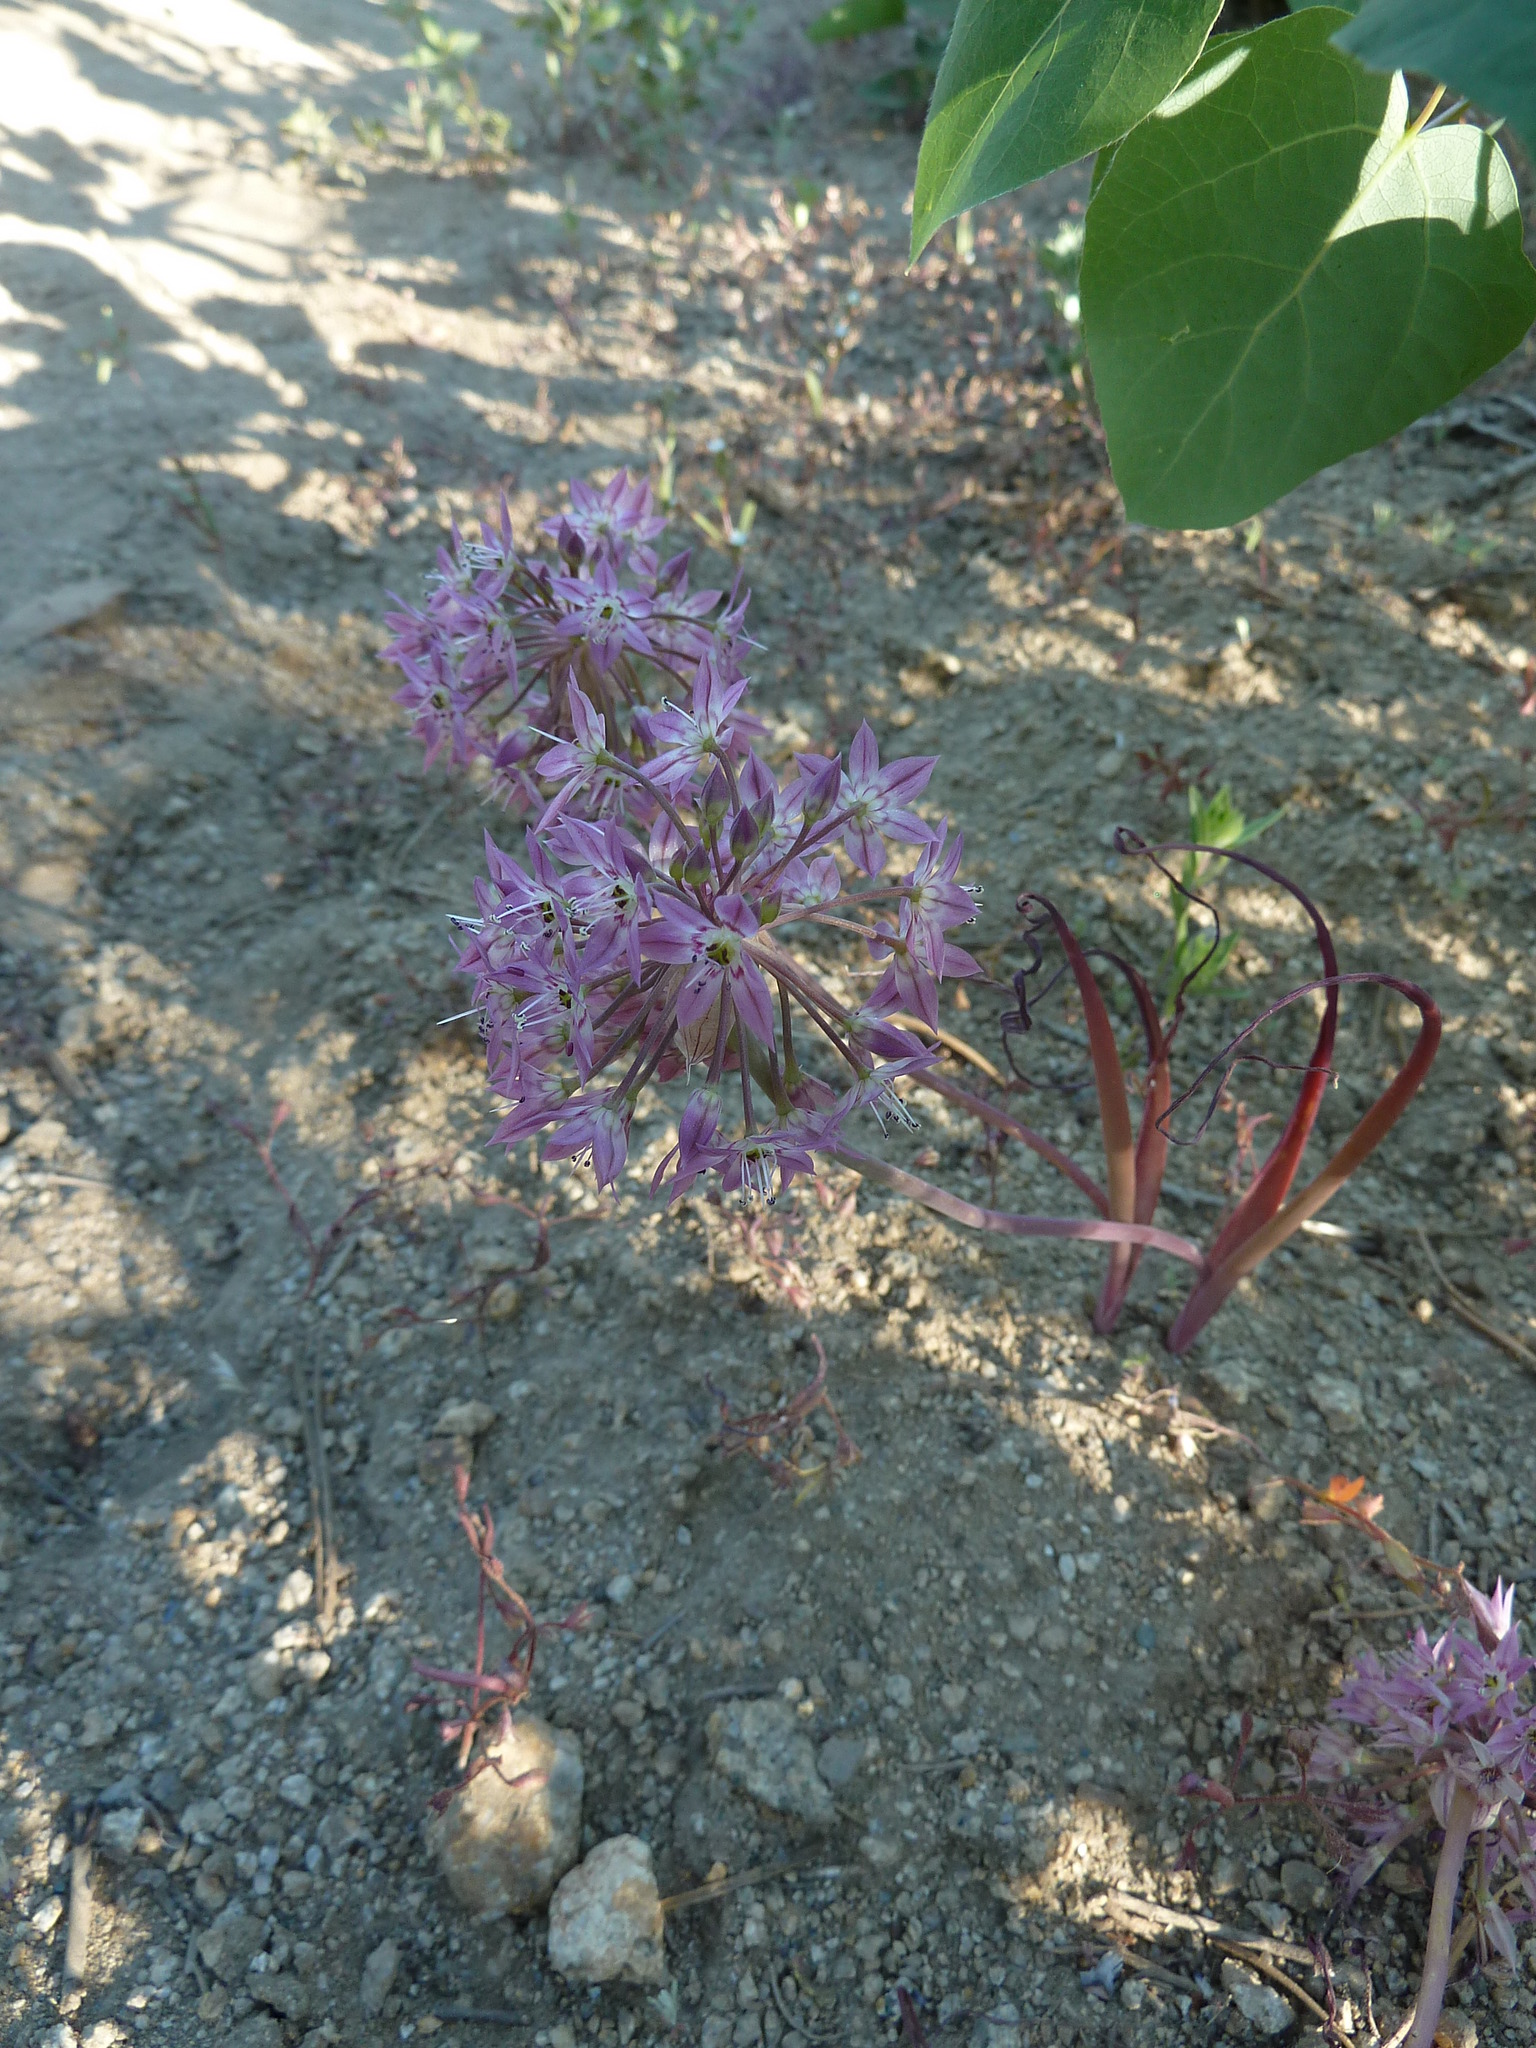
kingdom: Plantae
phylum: Tracheophyta
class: Liliopsida
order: Asparagales
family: Amaryllidaceae
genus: Allium
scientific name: Allium campanulatum
